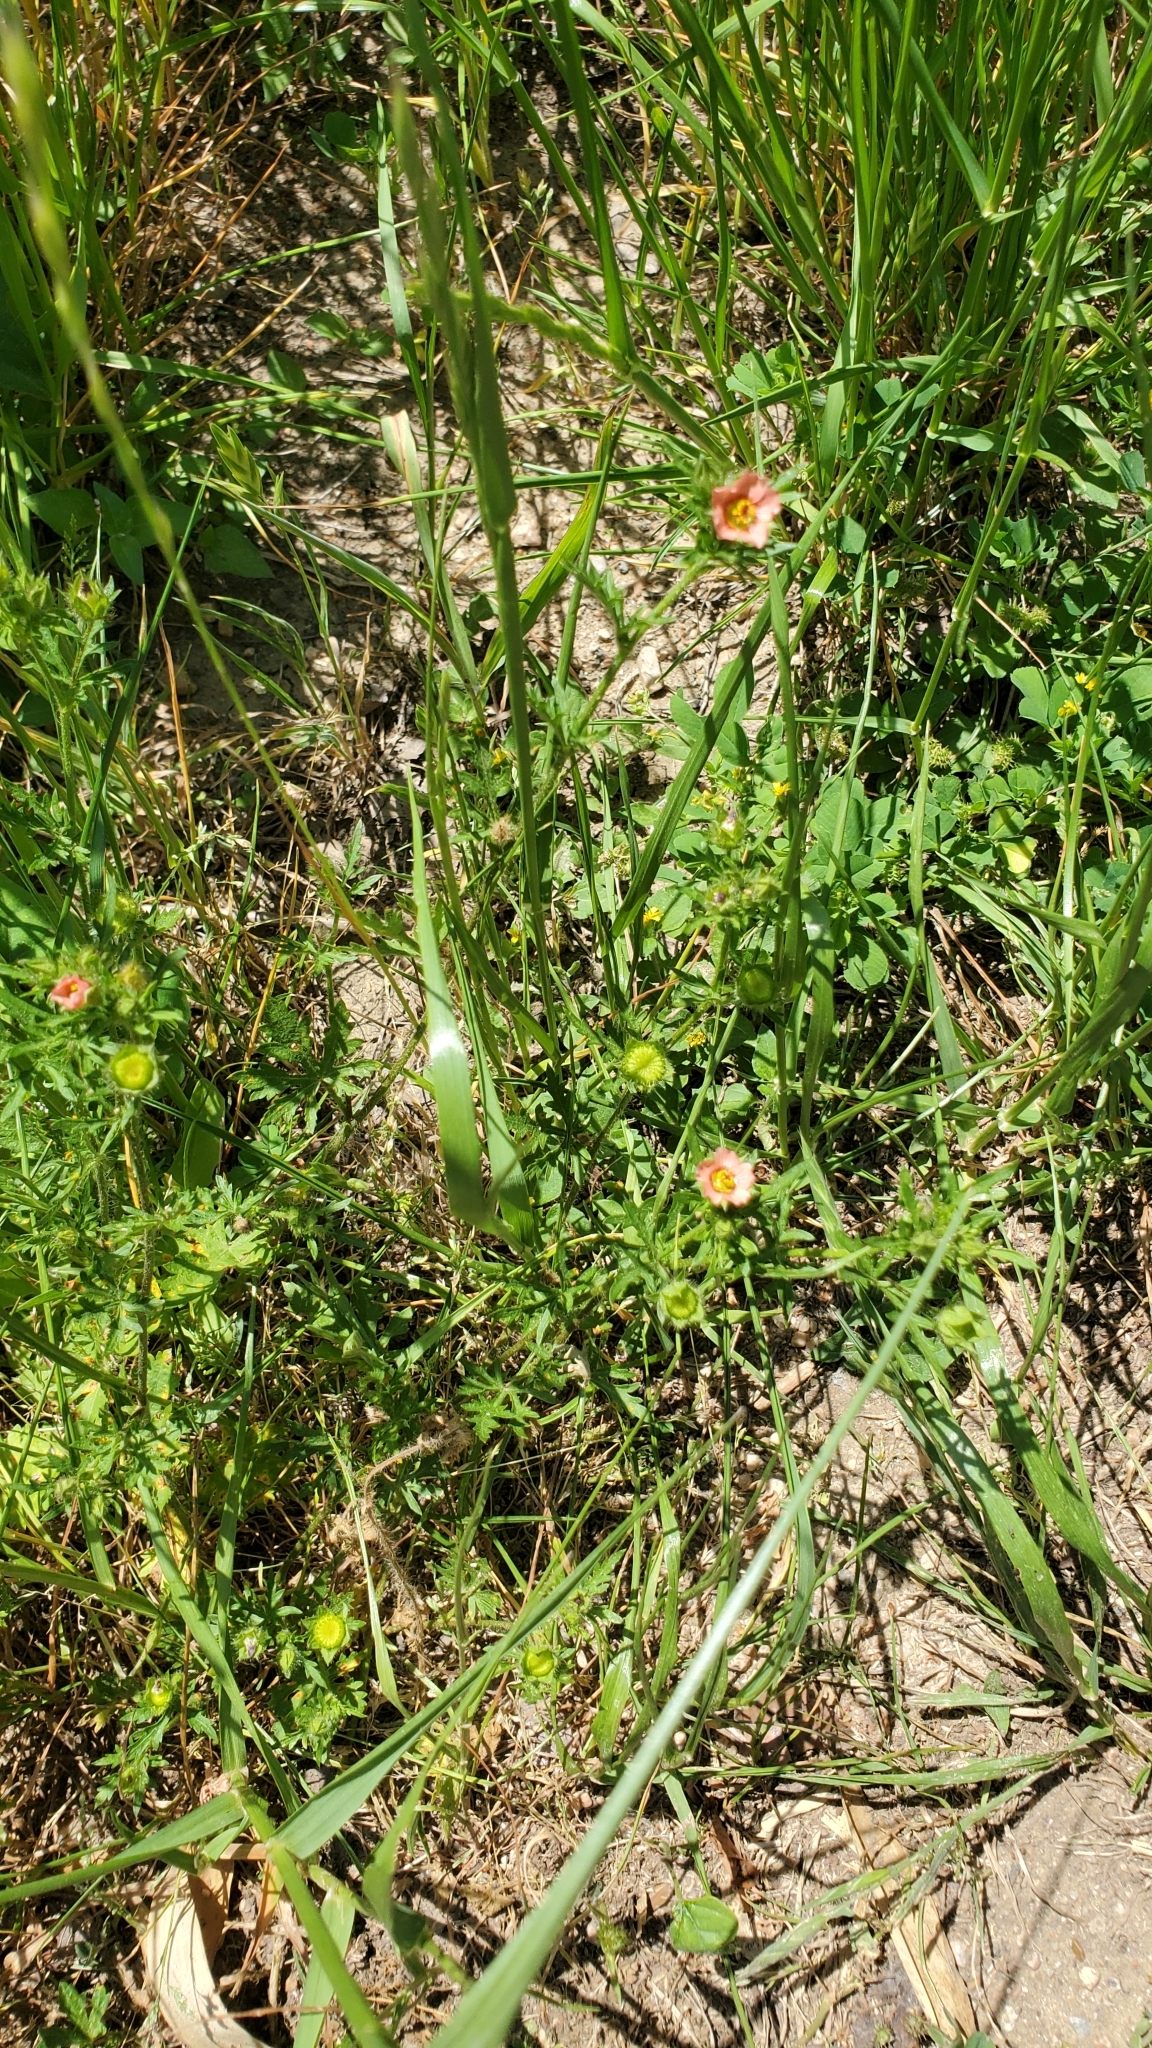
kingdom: Plantae
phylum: Tracheophyta
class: Magnoliopsida
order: Malvales
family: Malvaceae
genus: Modiola
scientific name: Modiola caroliniana
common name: Carolina bristlemallow
